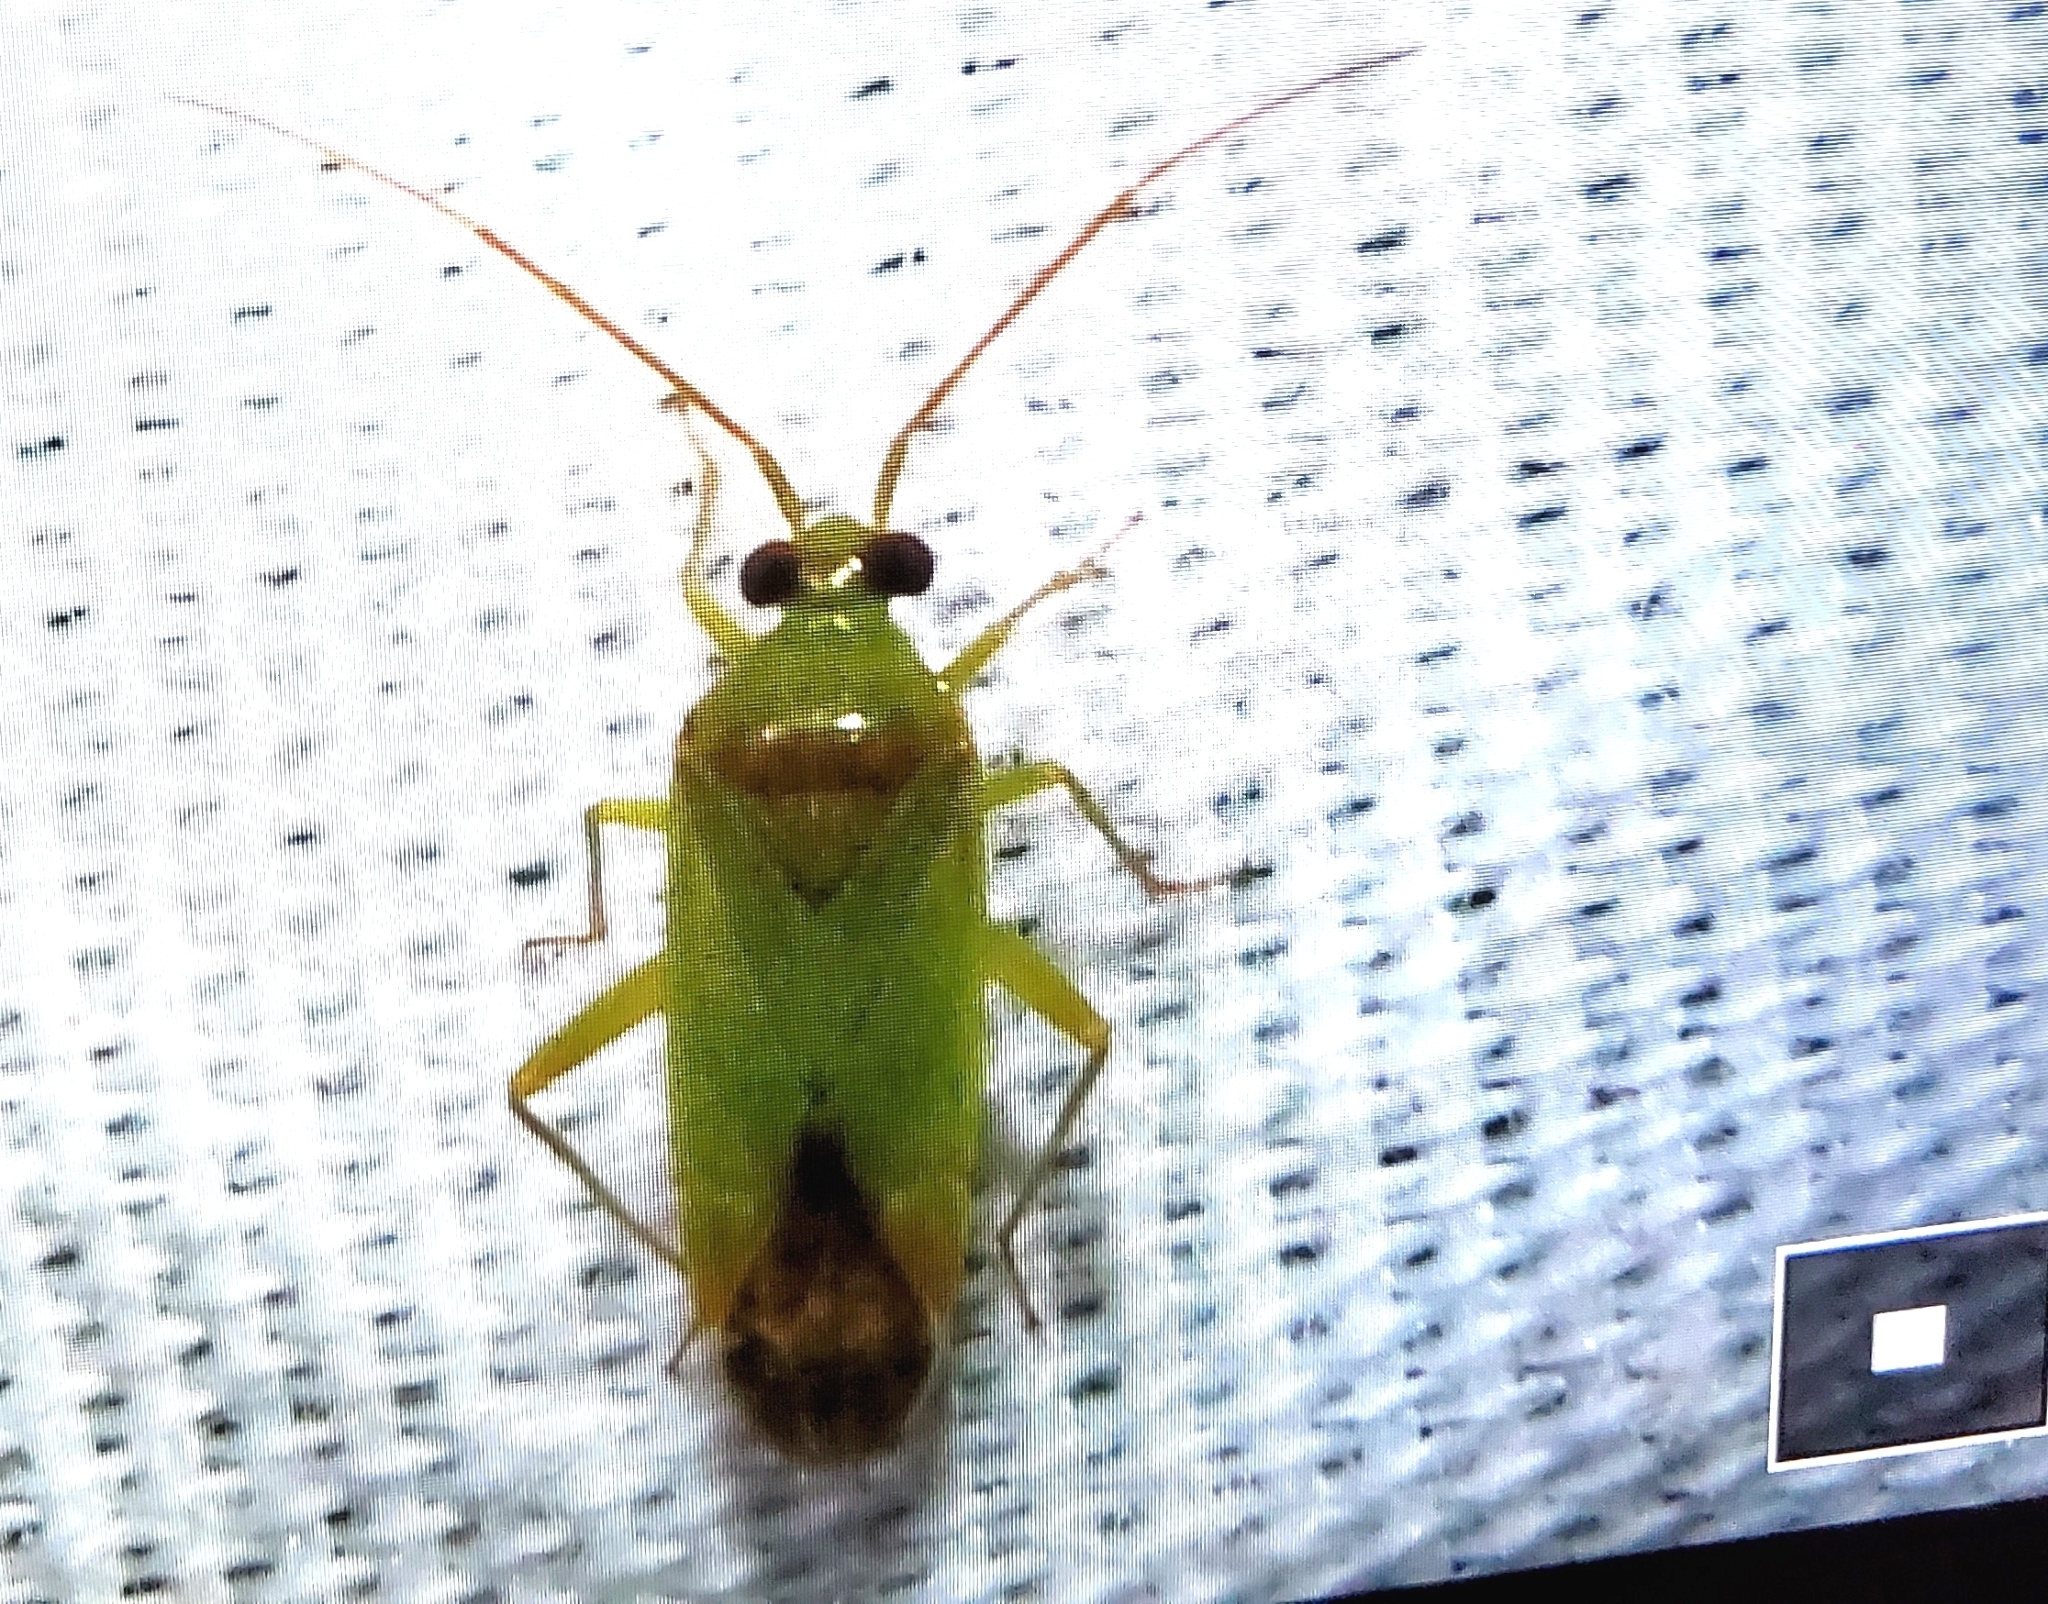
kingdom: Animalia
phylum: Arthropoda
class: Insecta
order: Hemiptera
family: Miridae
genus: Phytocoris
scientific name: Phytocoris vanduzeei
